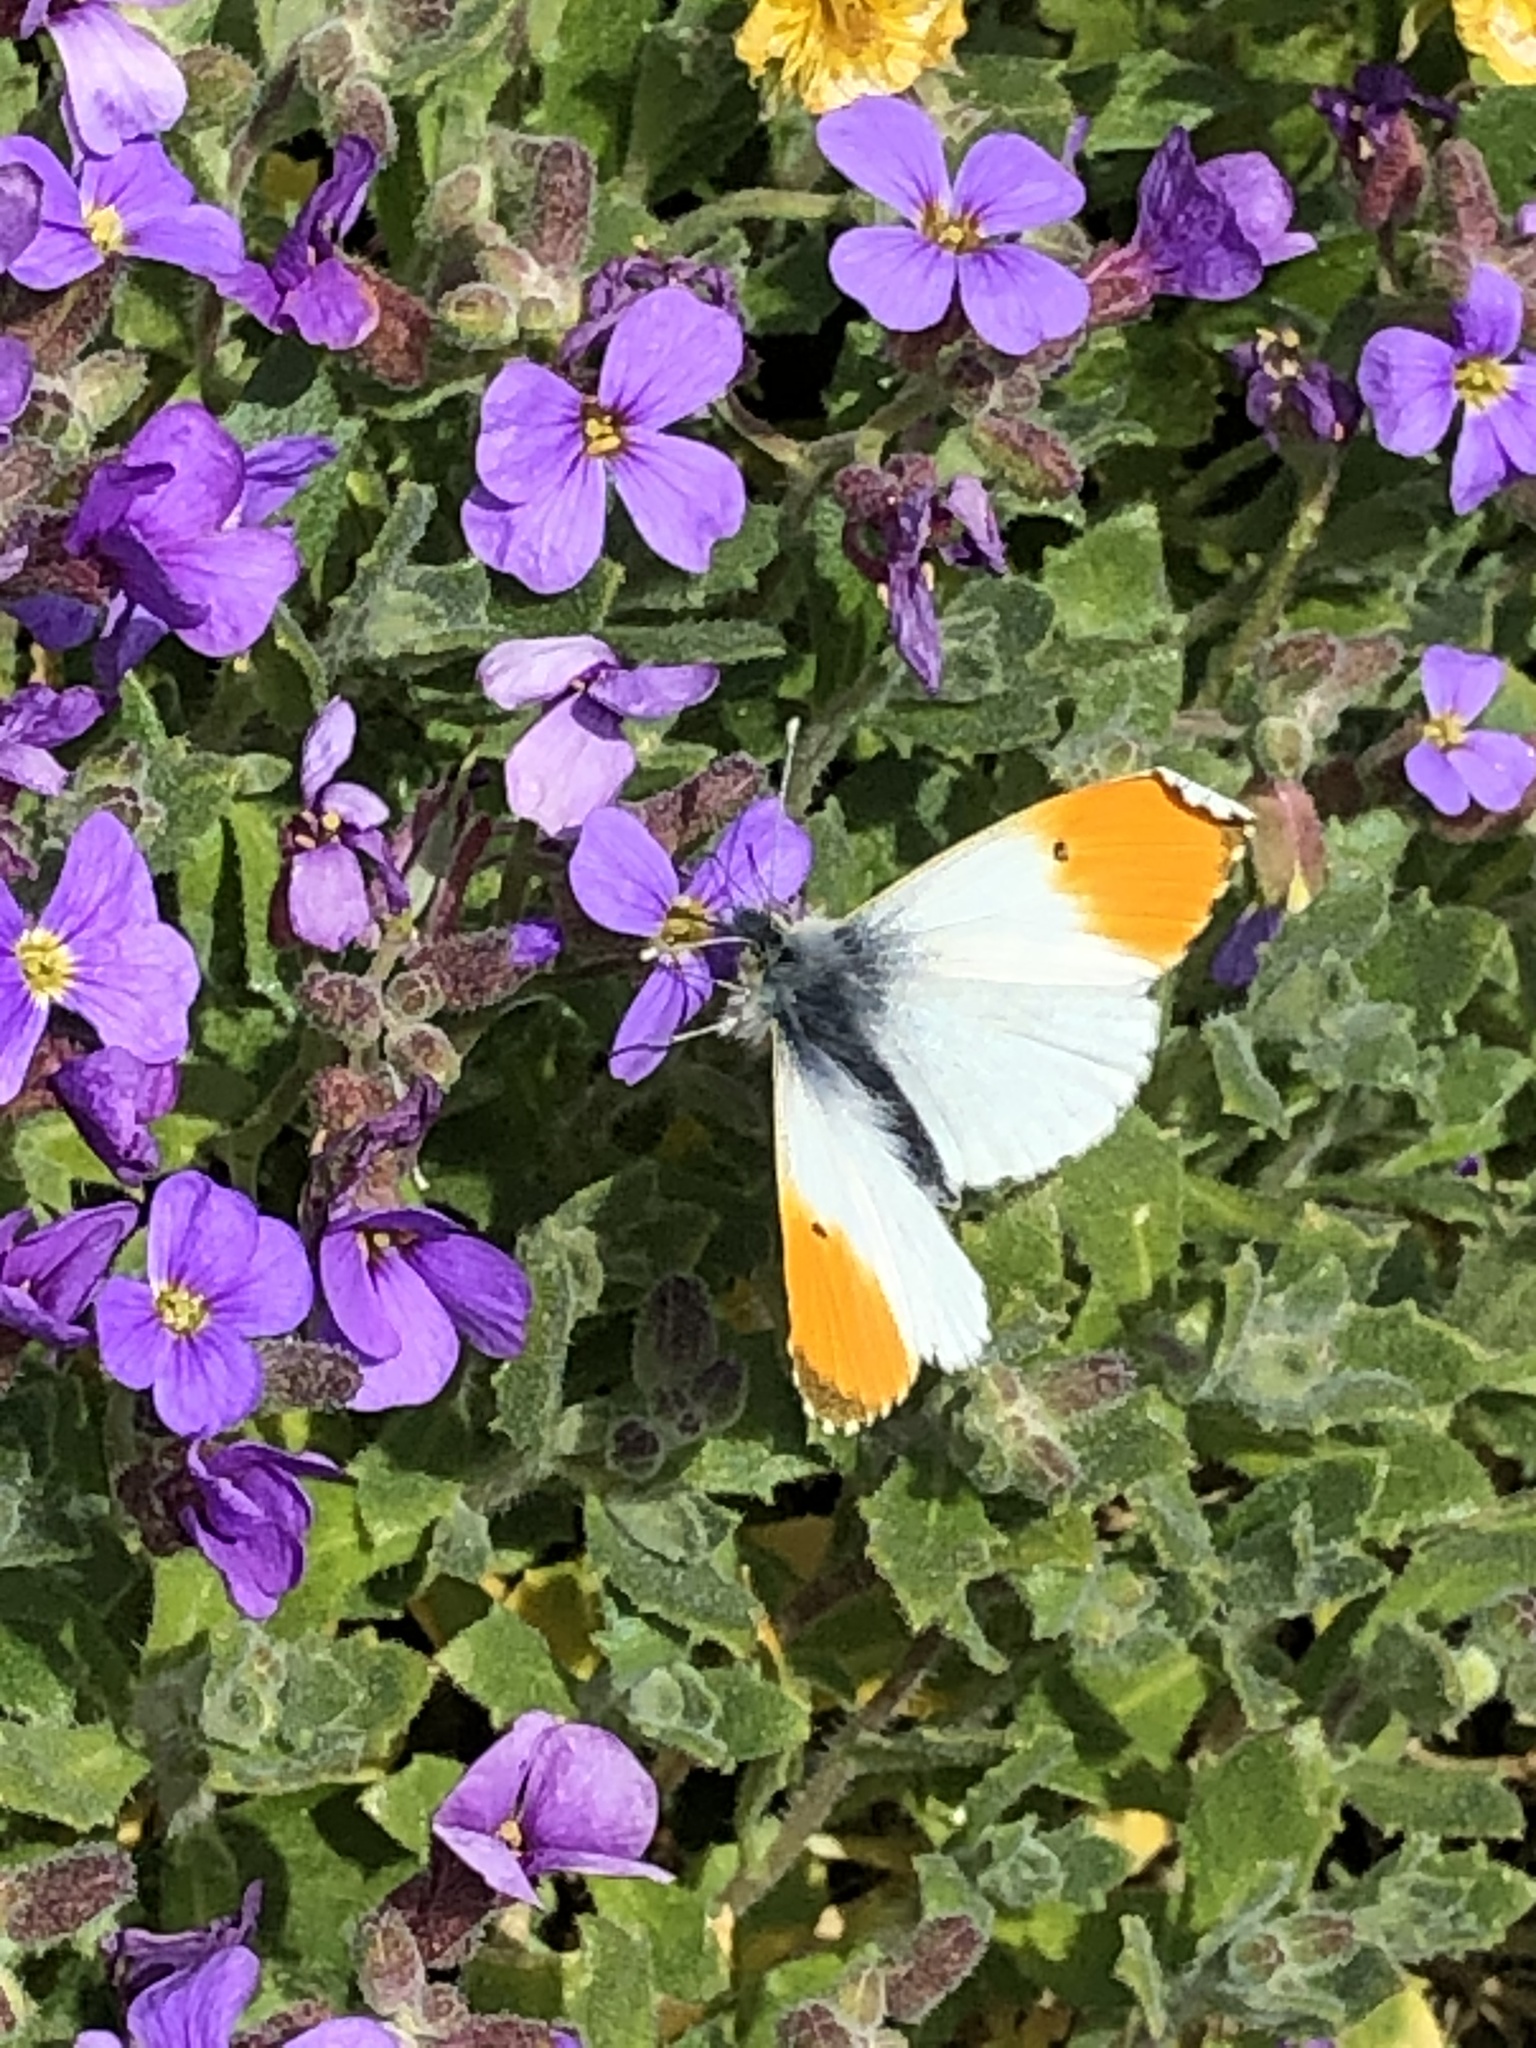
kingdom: Animalia
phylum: Arthropoda
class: Insecta
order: Lepidoptera
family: Pieridae
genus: Anthocharis
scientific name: Anthocharis cardamines
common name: Orange-tip
